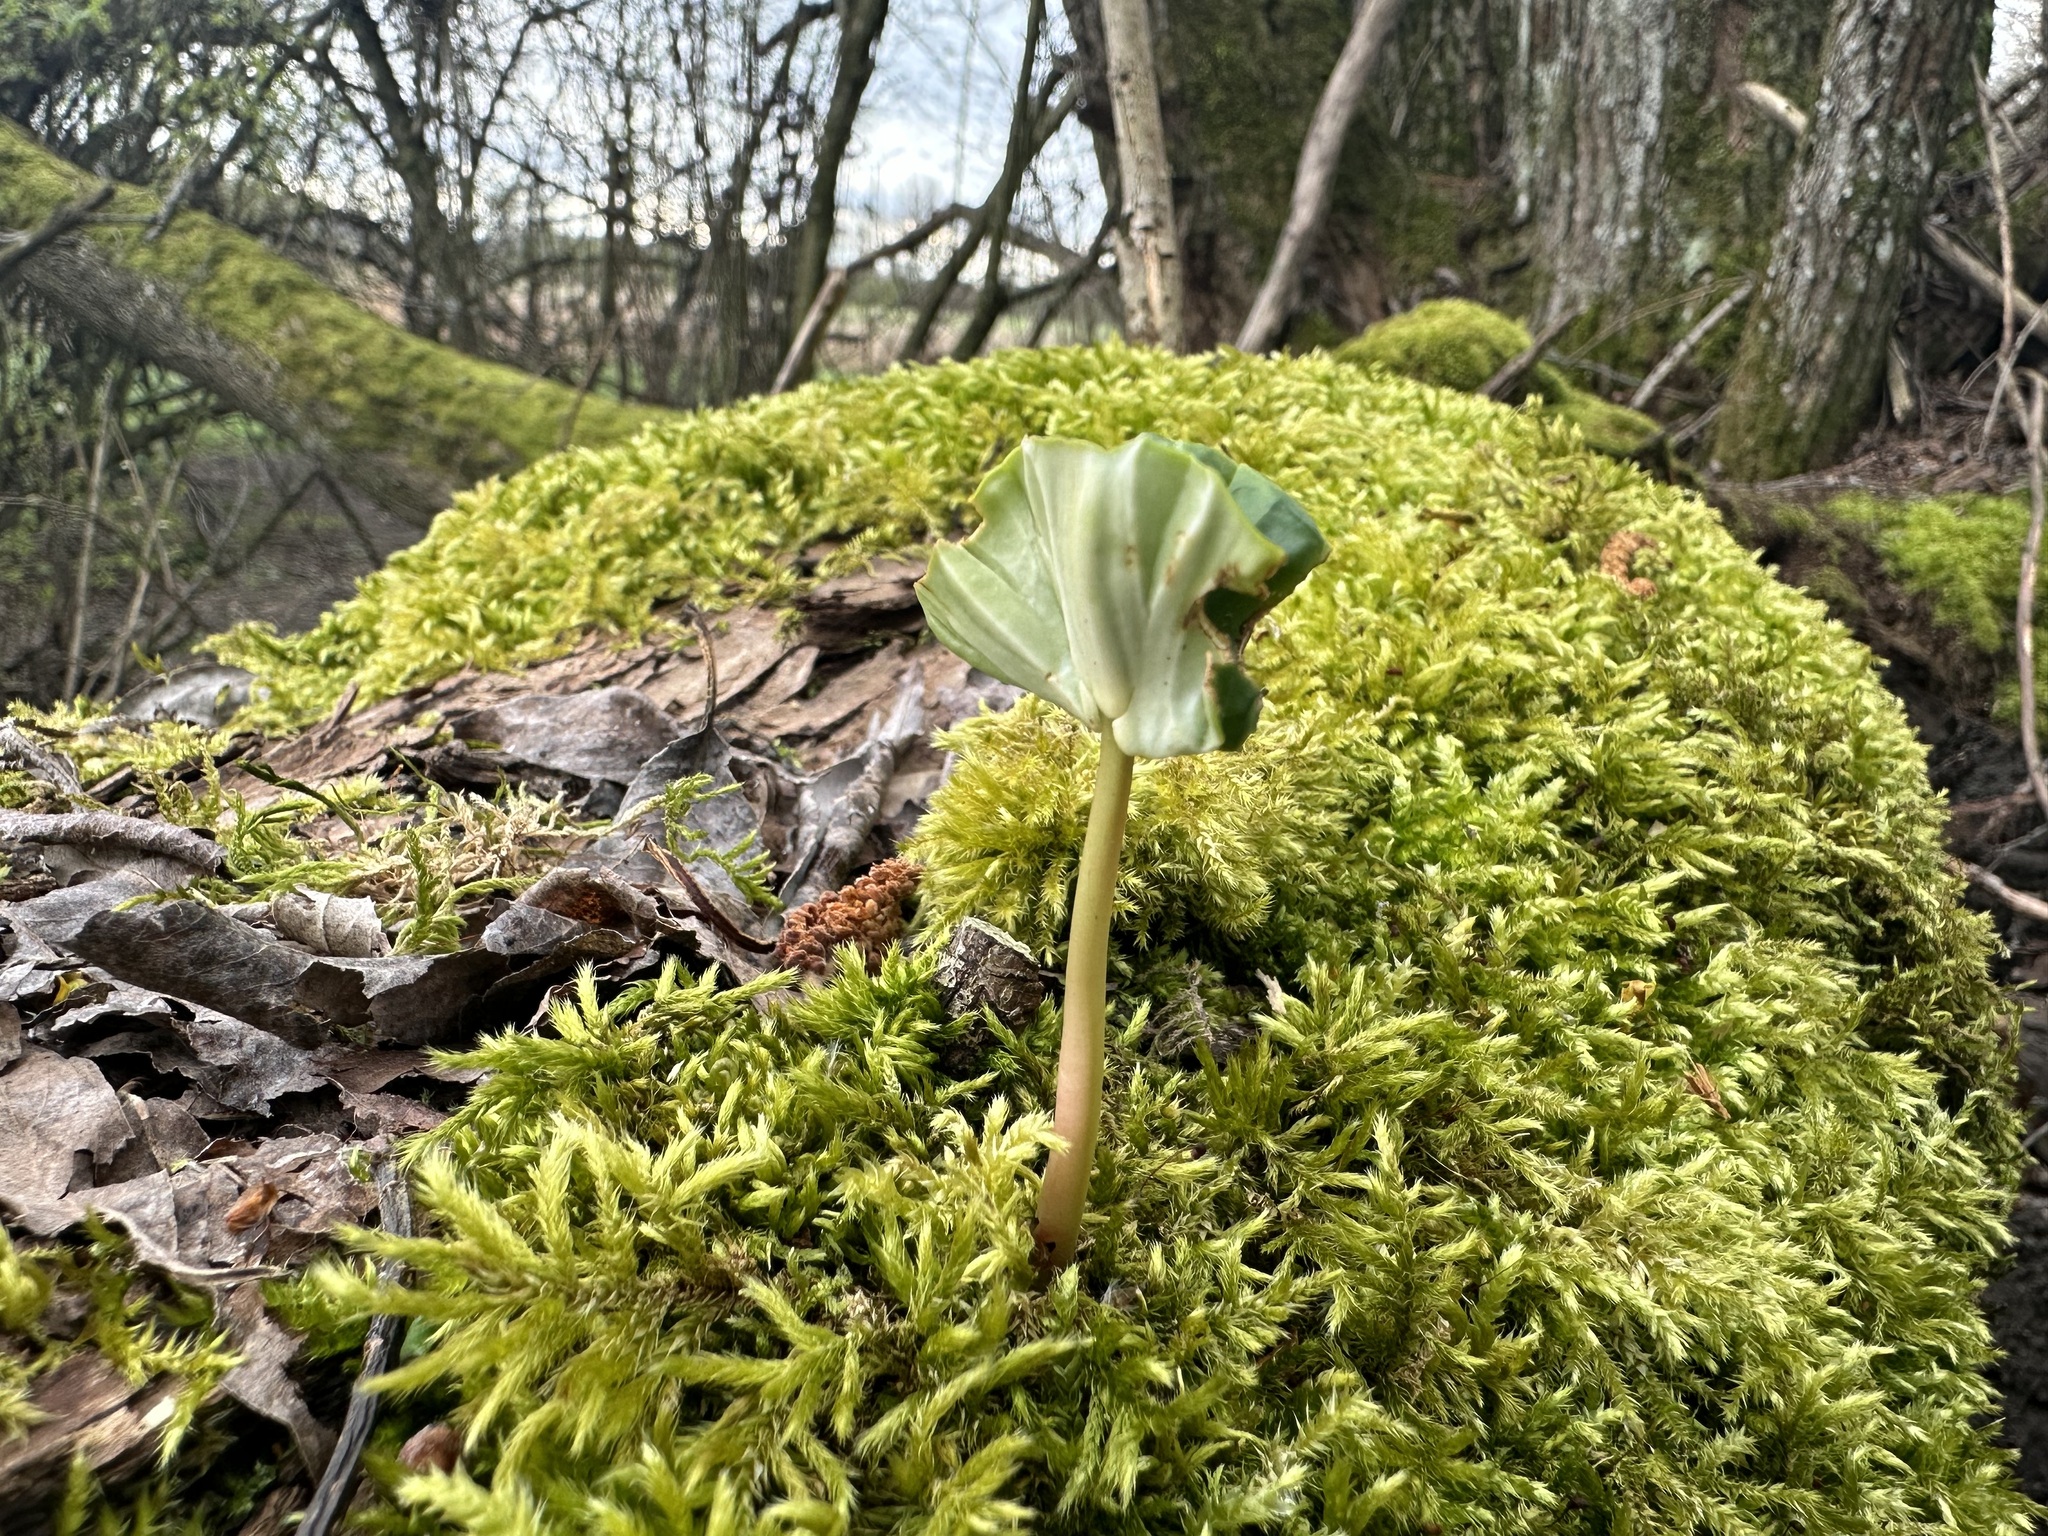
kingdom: Plantae
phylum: Tracheophyta
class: Magnoliopsida
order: Fagales
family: Fagaceae
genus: Fagus
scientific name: Fagus sylvatica
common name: Beech
